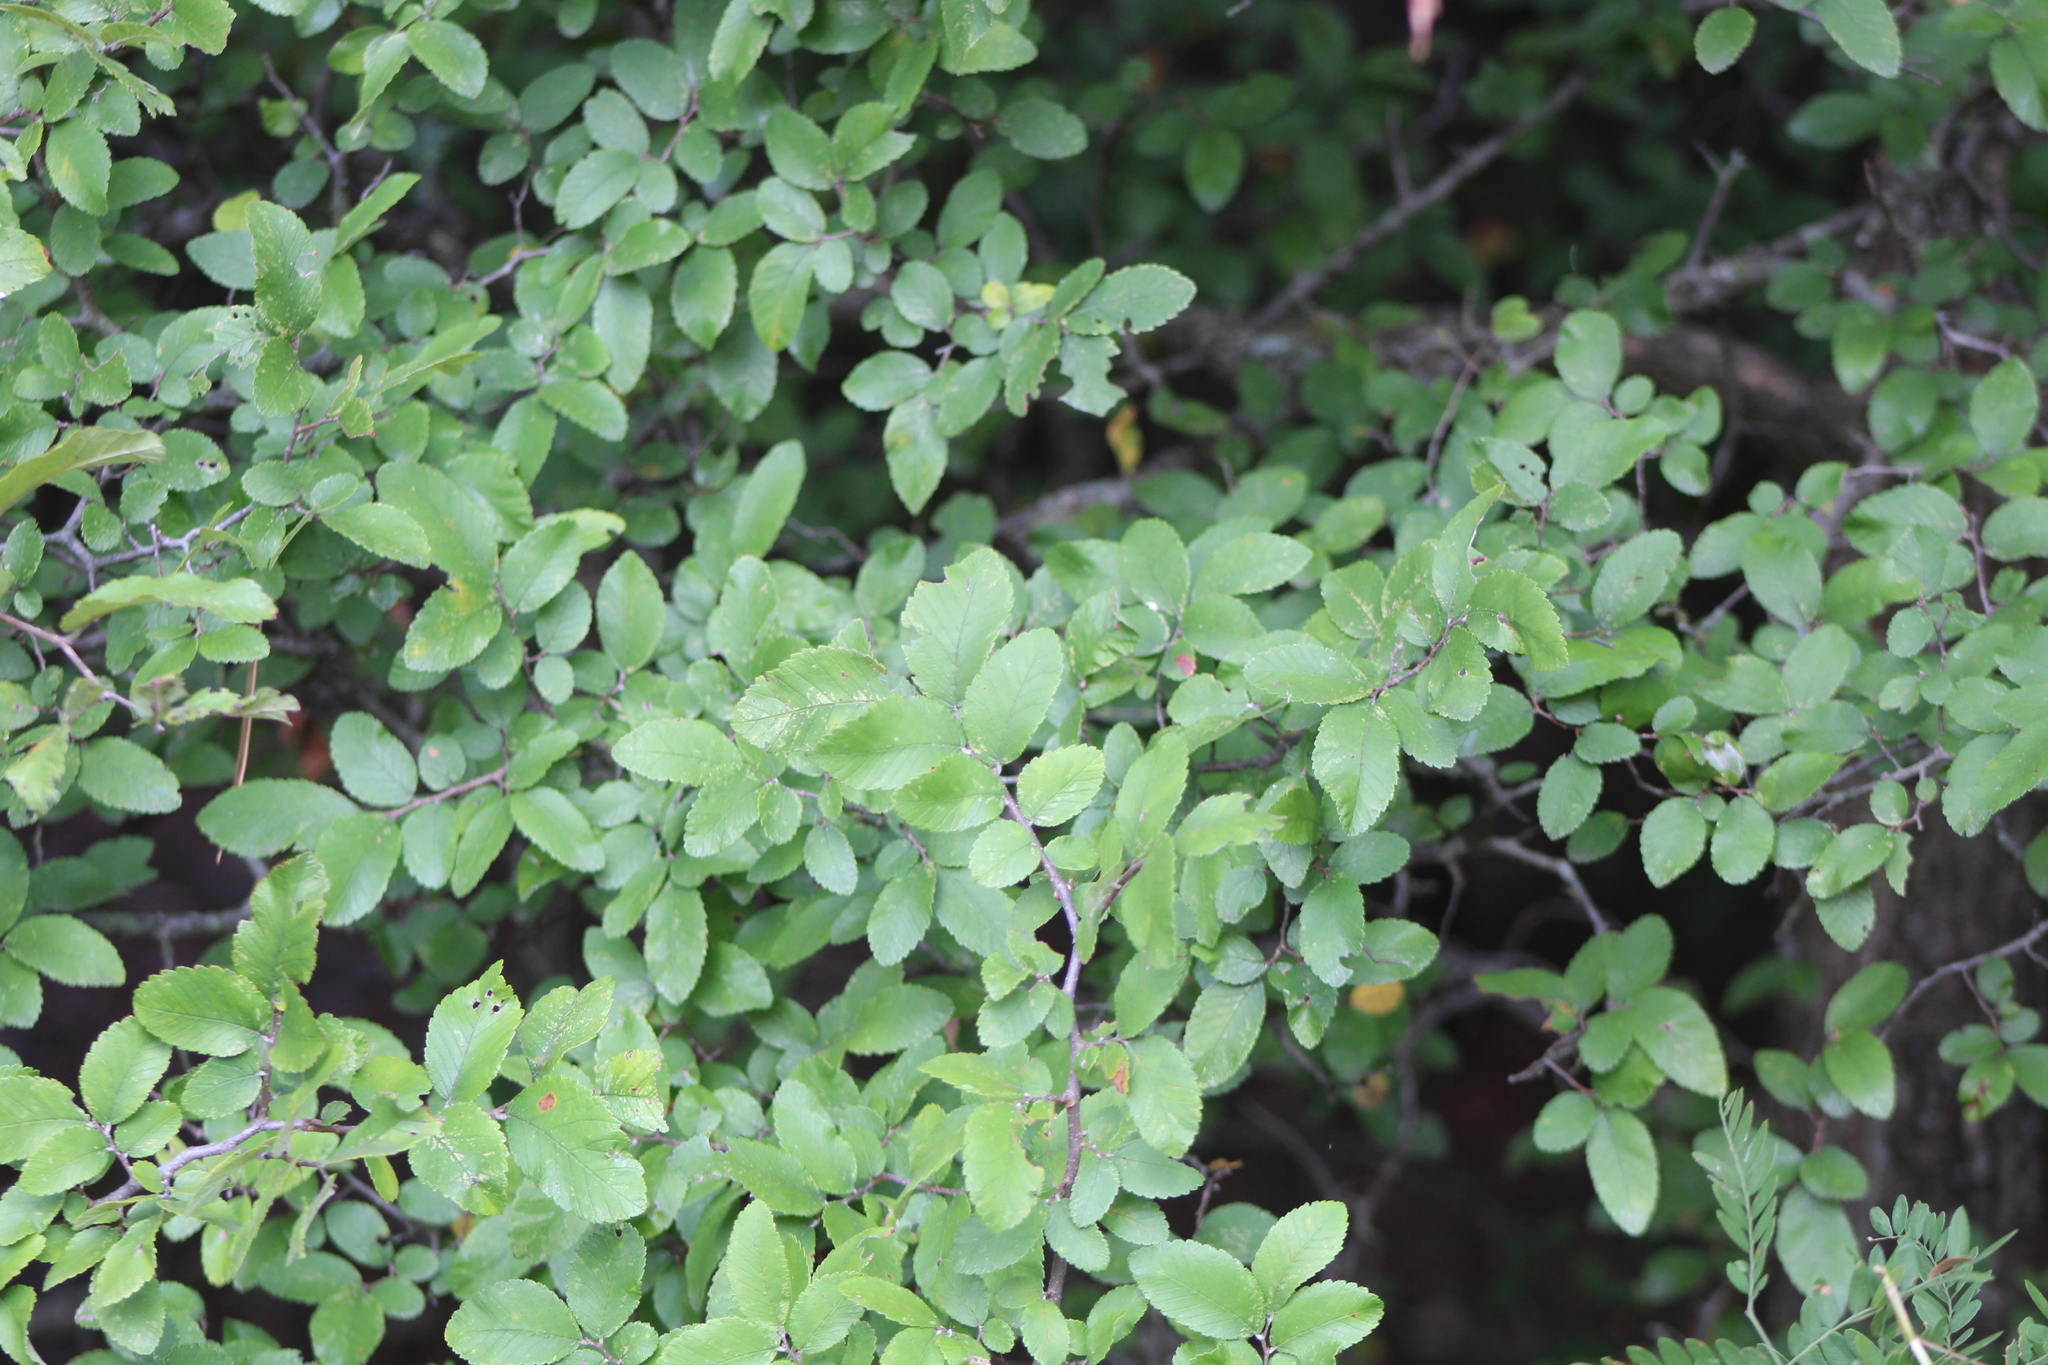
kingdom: Plantae
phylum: Tracheophyta
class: Magnoliopsida
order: Rosales
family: Ulmaceae
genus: Ulmus
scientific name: Ulmus crassifolia
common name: Basket elm
